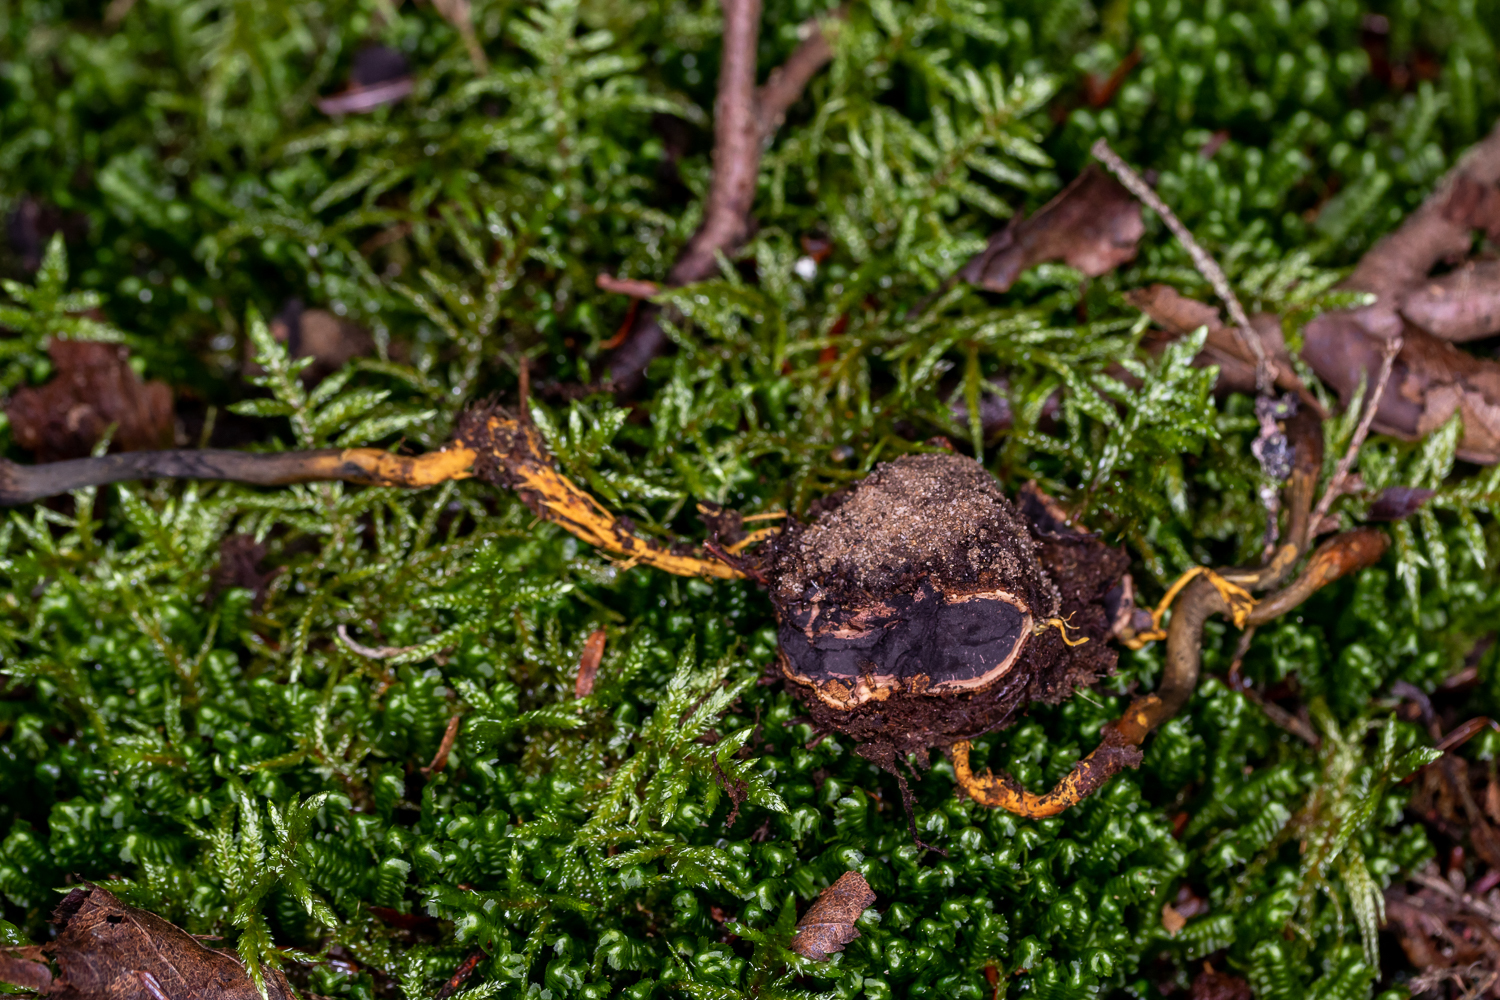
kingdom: Fungi
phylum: Ascomycota
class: Sordariomycetes
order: Hypocreales
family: Ophiocordycipitaceae
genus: Tolypocladium
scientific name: Tolypocladium ophioglossoides
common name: Snaketongue truffleclub
